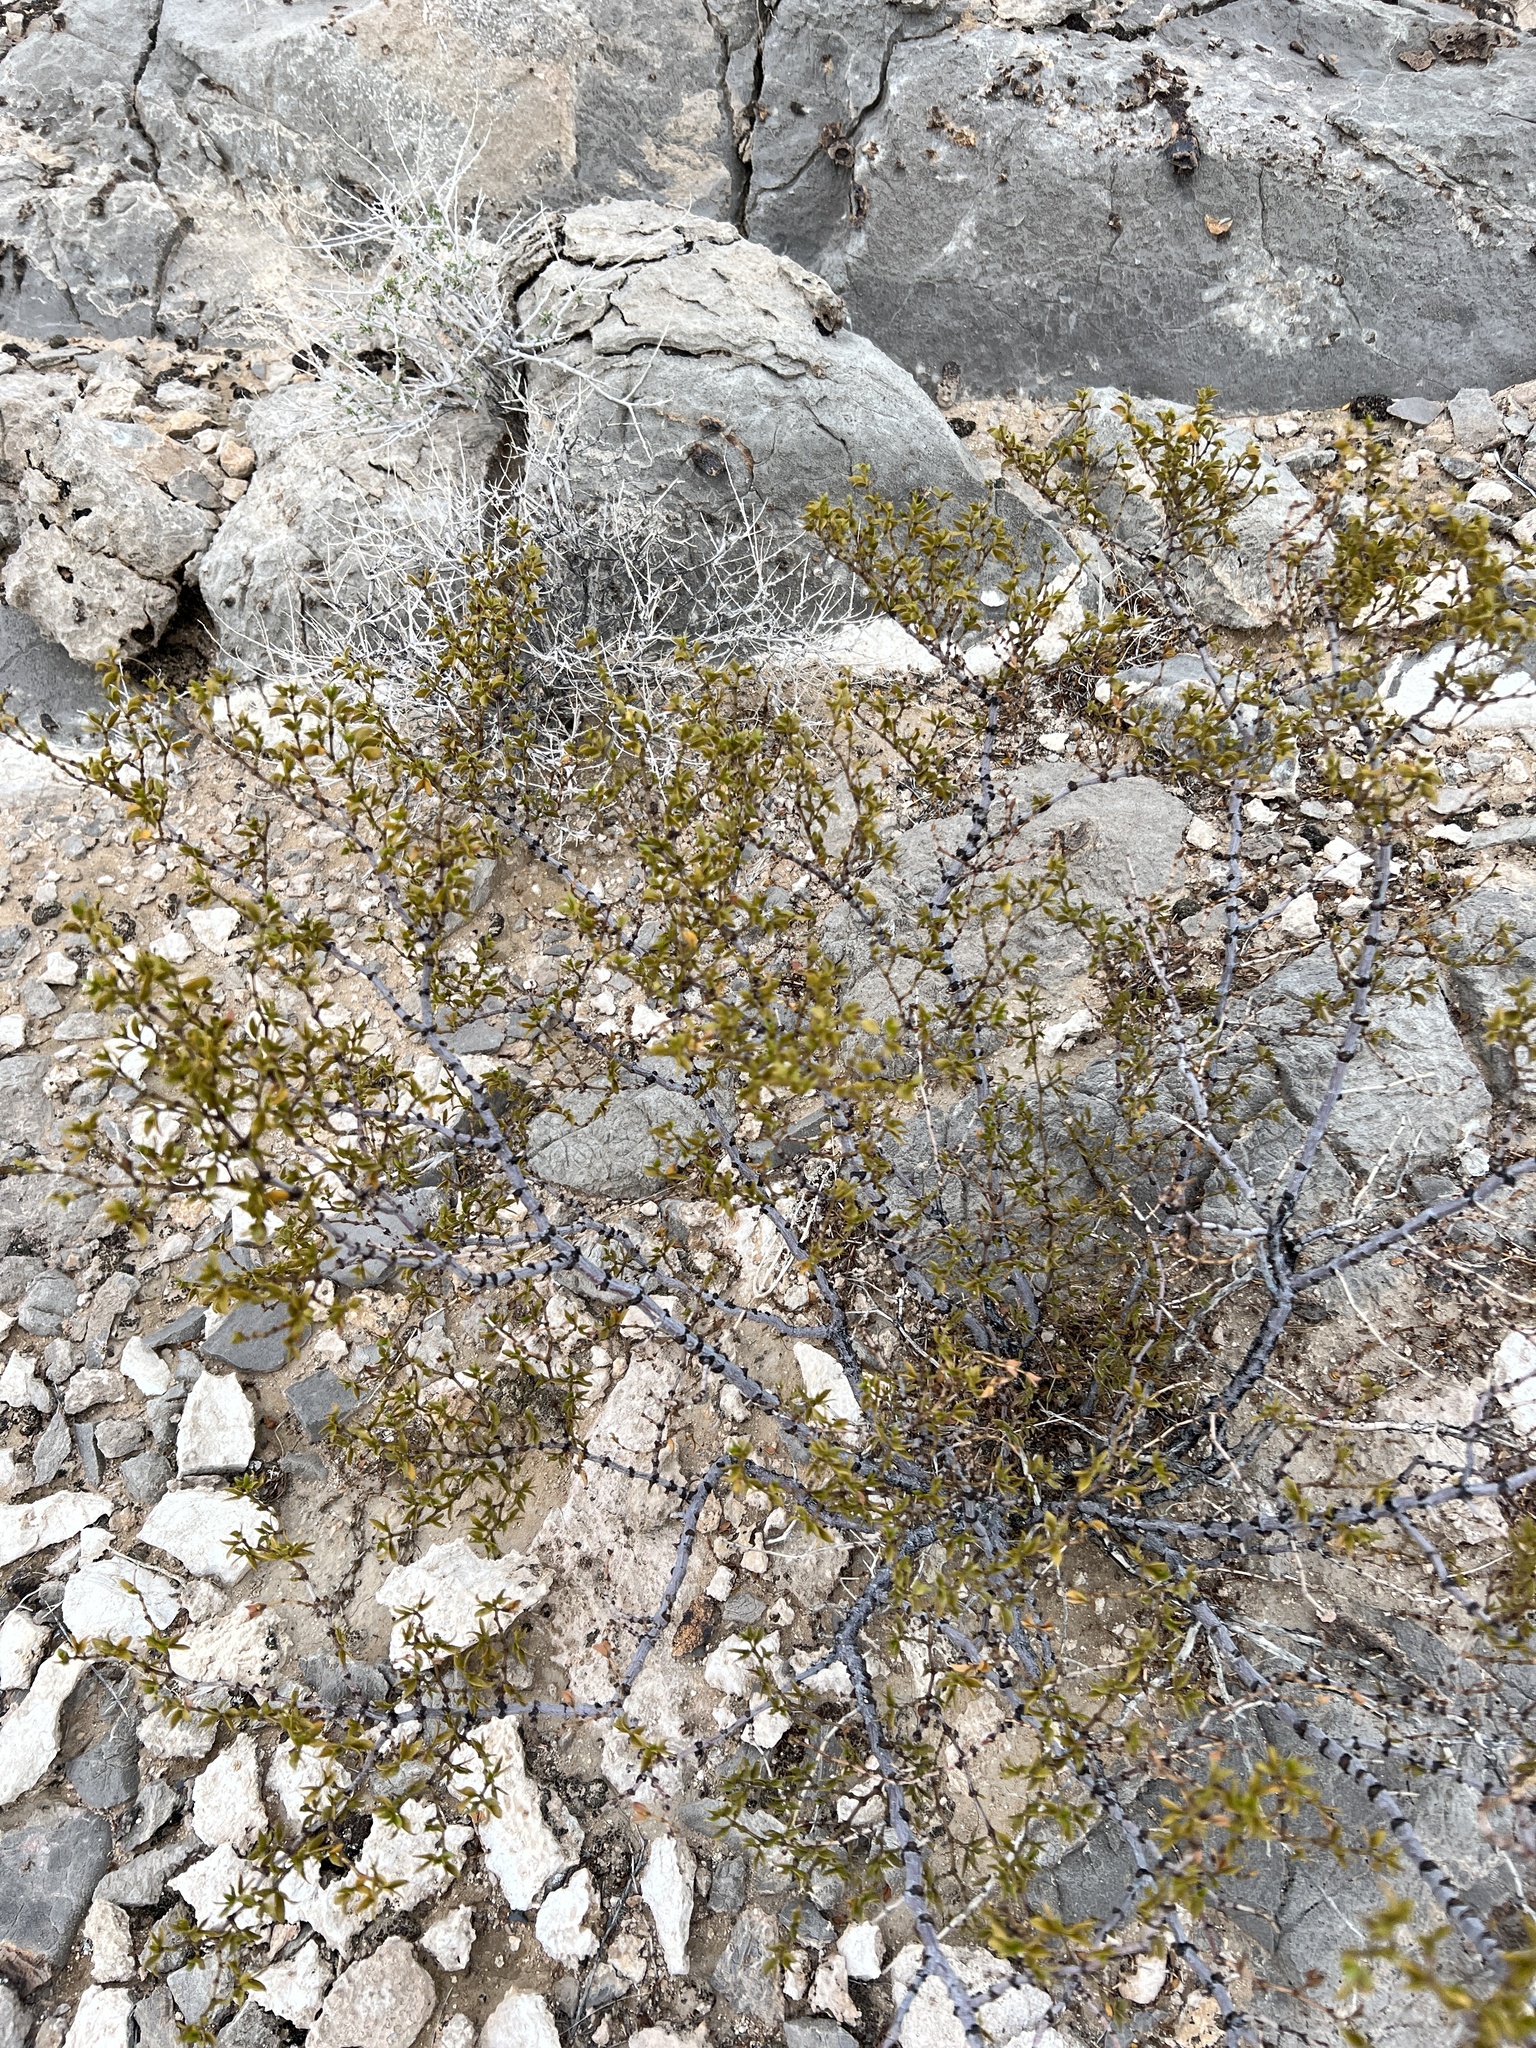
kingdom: Plantae
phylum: Tracheophyta
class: Magnoliopsida
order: Zygophyllales
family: Zygophyllaceae
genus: Larrea
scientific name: Larrea tridentata
